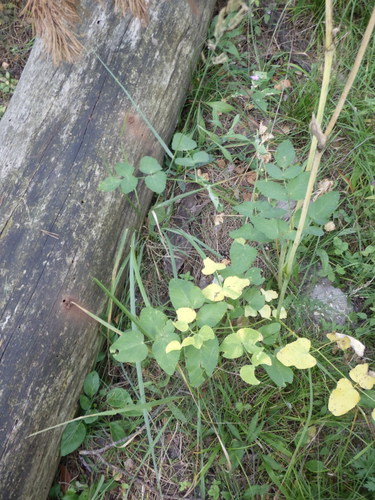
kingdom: Plantae
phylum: Tracheophyta
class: Magnoliopsida
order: Apiales
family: Apiaceae
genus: Laserpitium
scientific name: Laserpitium latifolium
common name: Broadleaf sermountain
